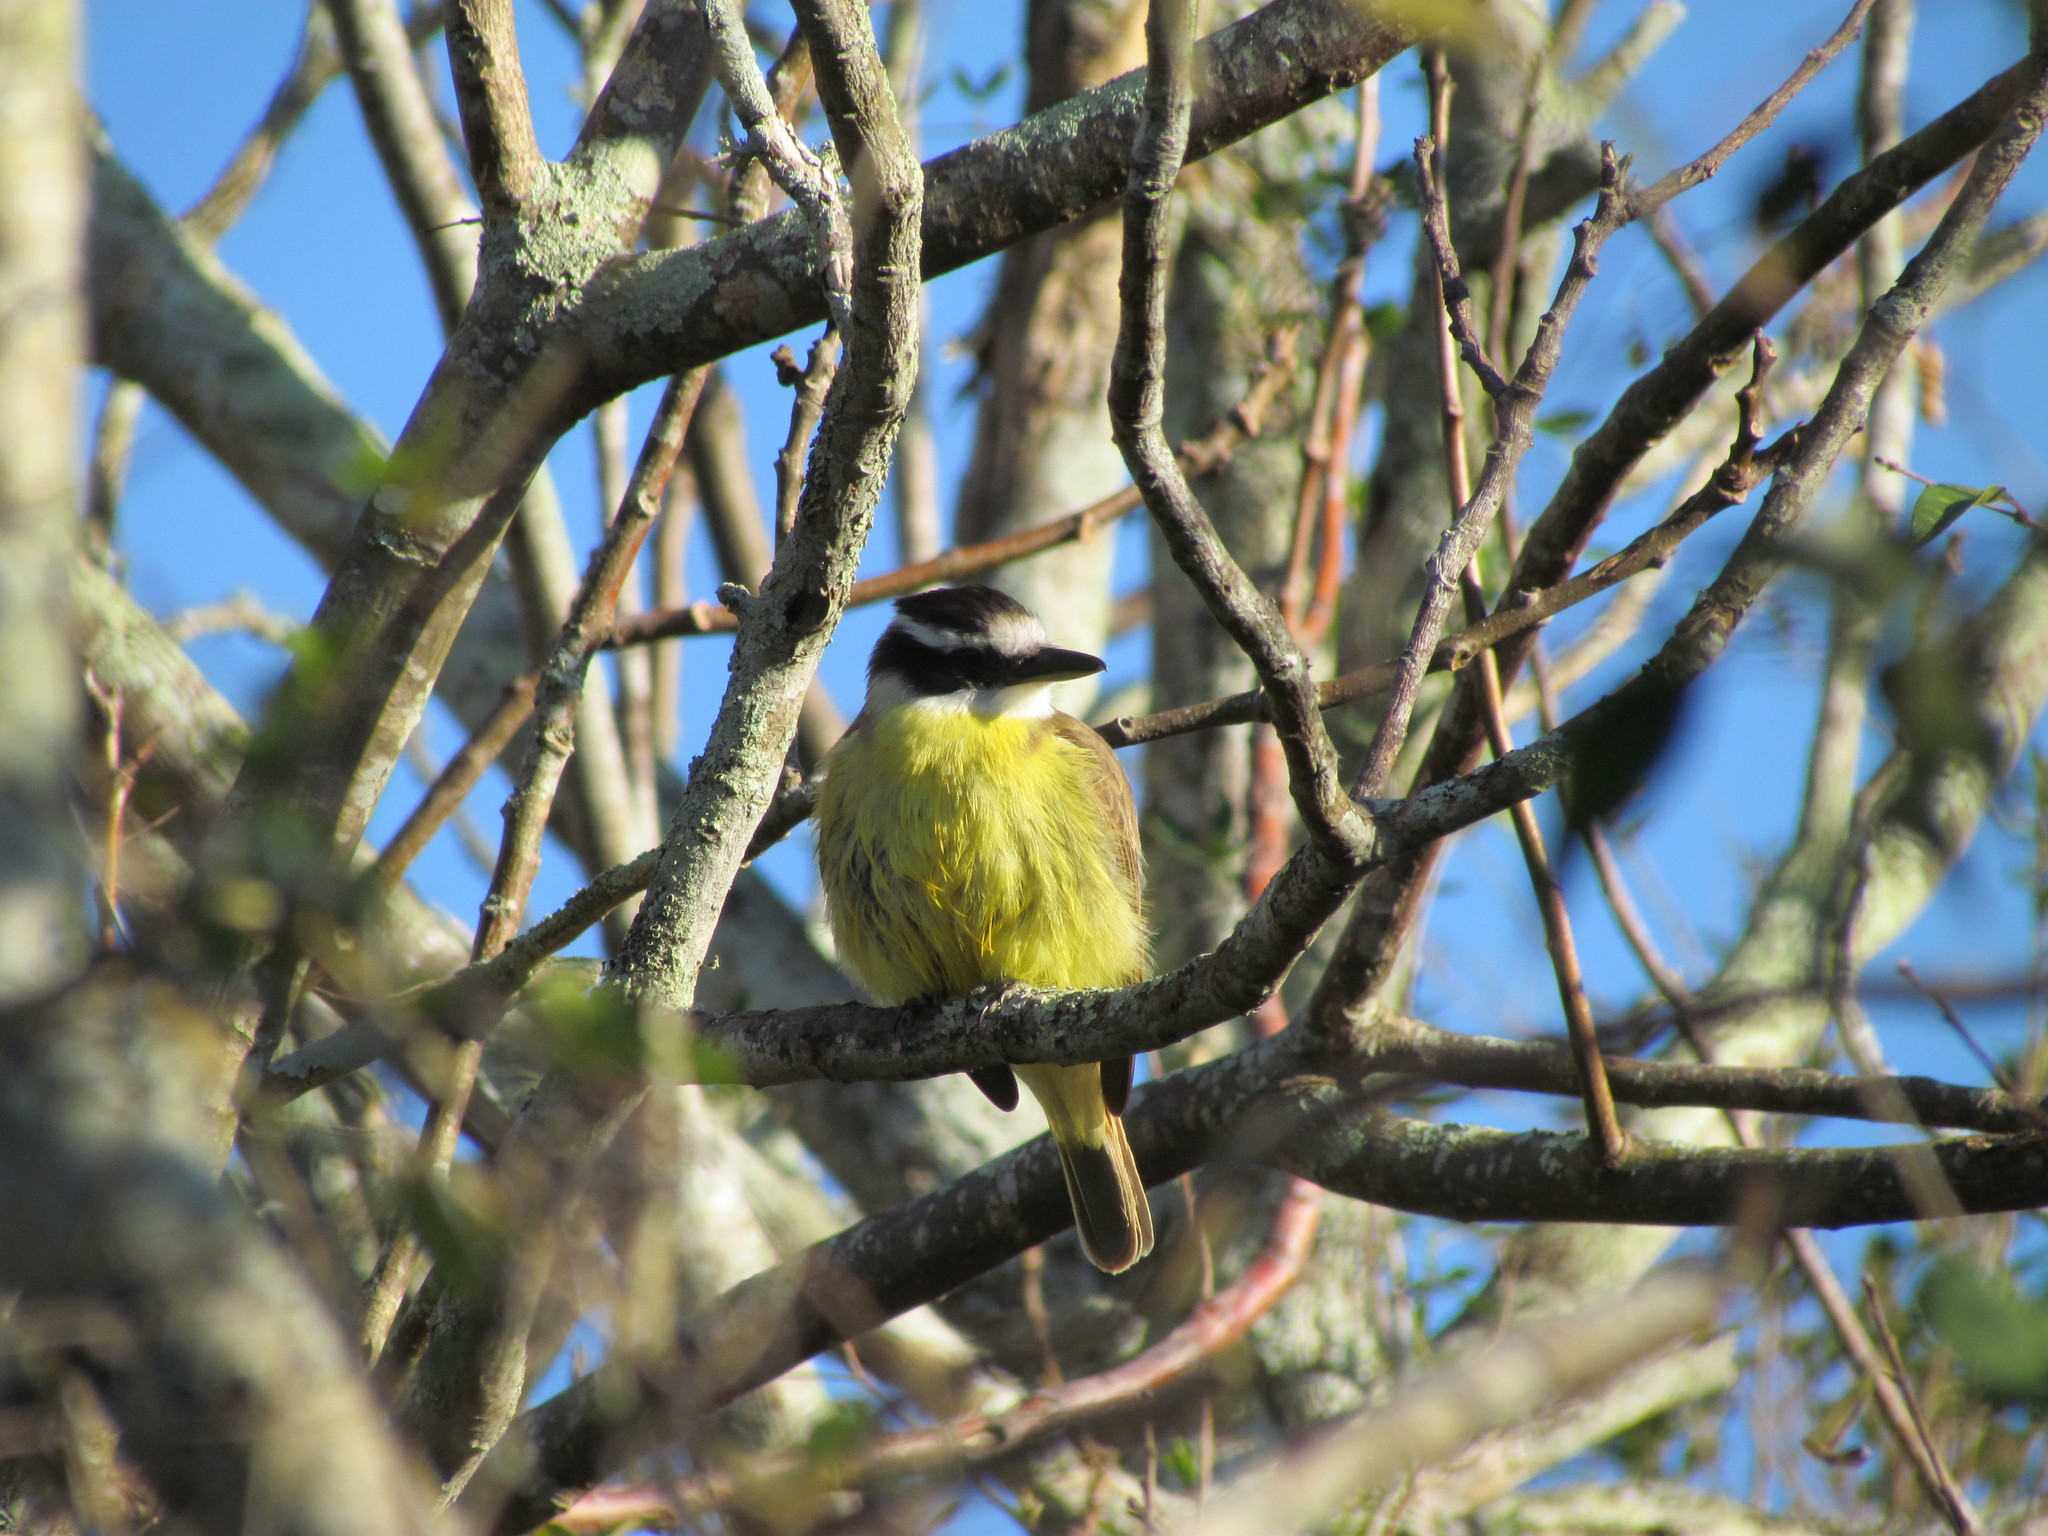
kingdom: Animalia
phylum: Chordata
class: Aves
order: Passeriformes
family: Tyrannidae
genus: Pitangus
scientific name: Pitangus sulphuratus
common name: Great kiskadee
